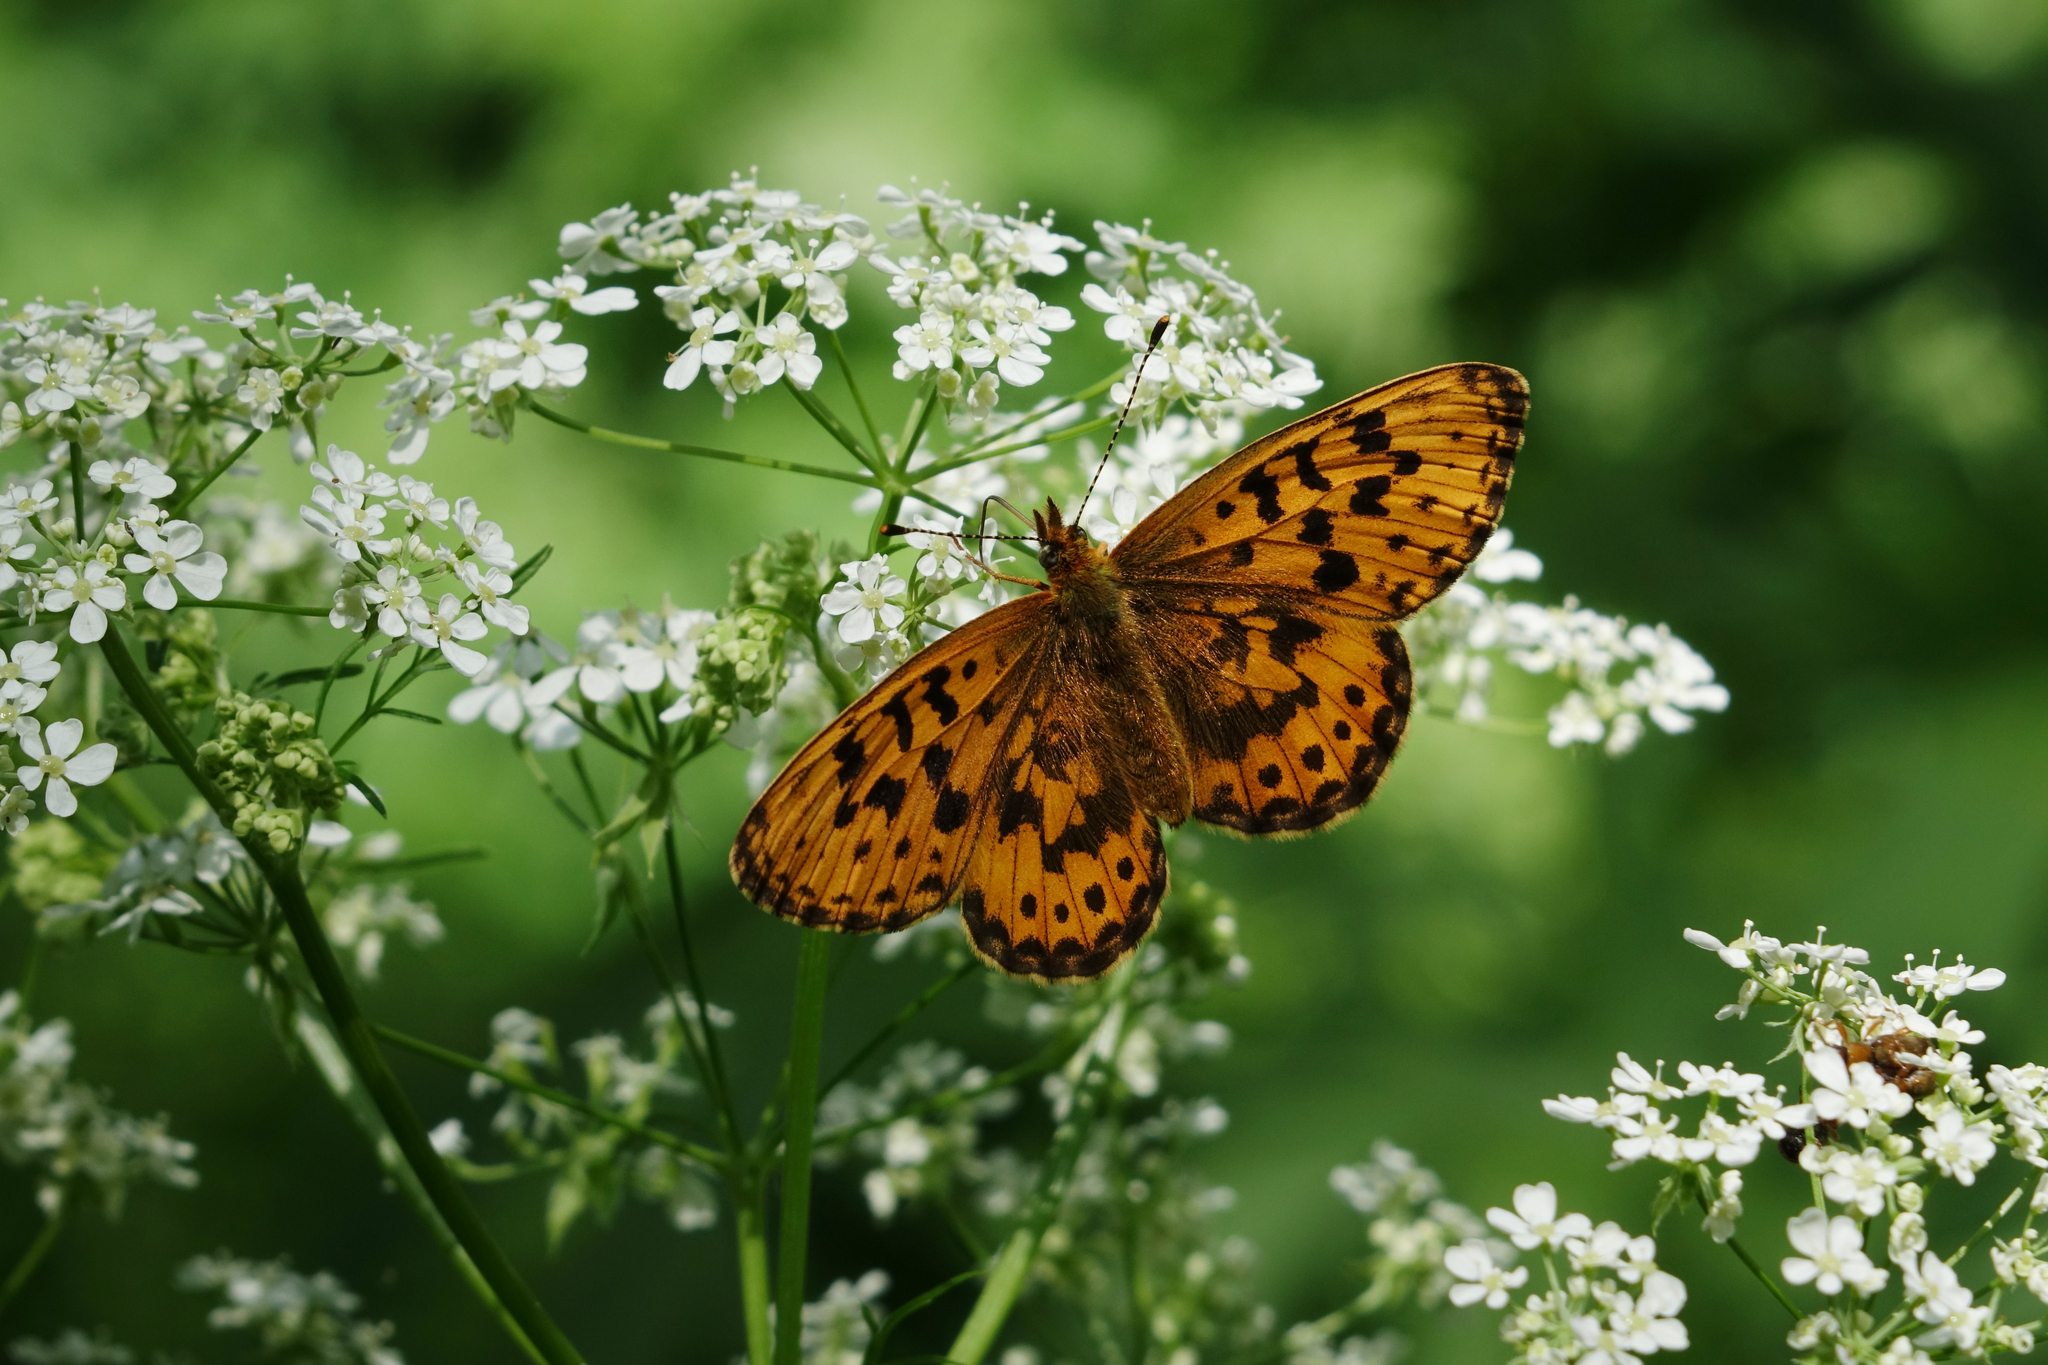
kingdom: Animalia
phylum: Arthropoda
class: Insecta
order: Lepidoptera
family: Nymphalidae
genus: Boloria
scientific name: Boloria thore
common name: Thor's fritillary
